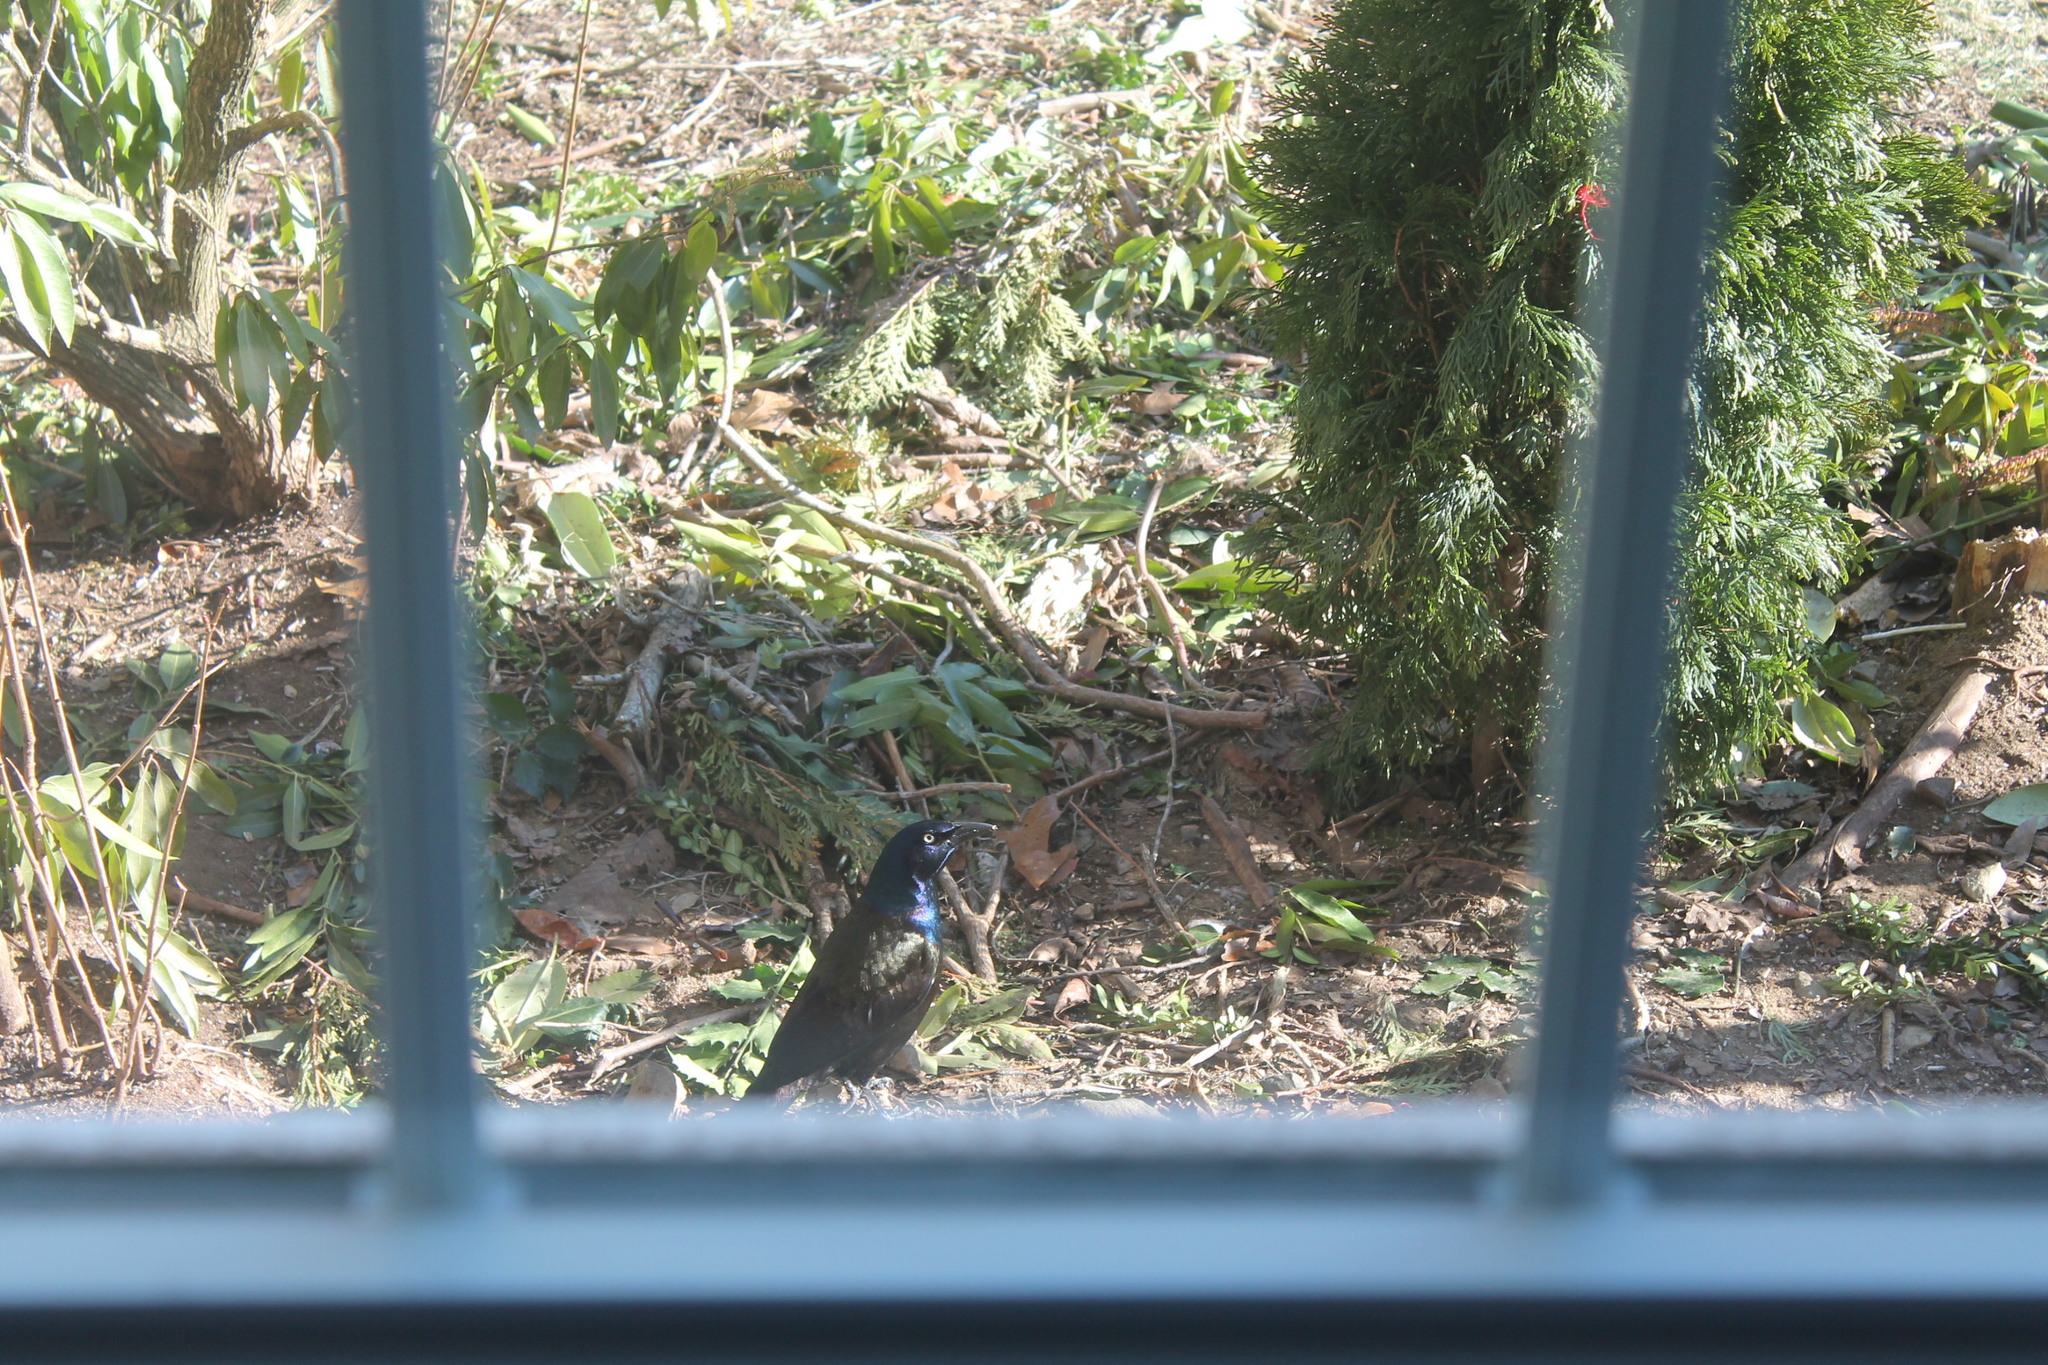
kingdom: Animalia
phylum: Chordata
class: Aves
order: Passeriformes
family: Icteridae
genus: Quiscalus
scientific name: Quiscalus quiscula
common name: Common grackle
